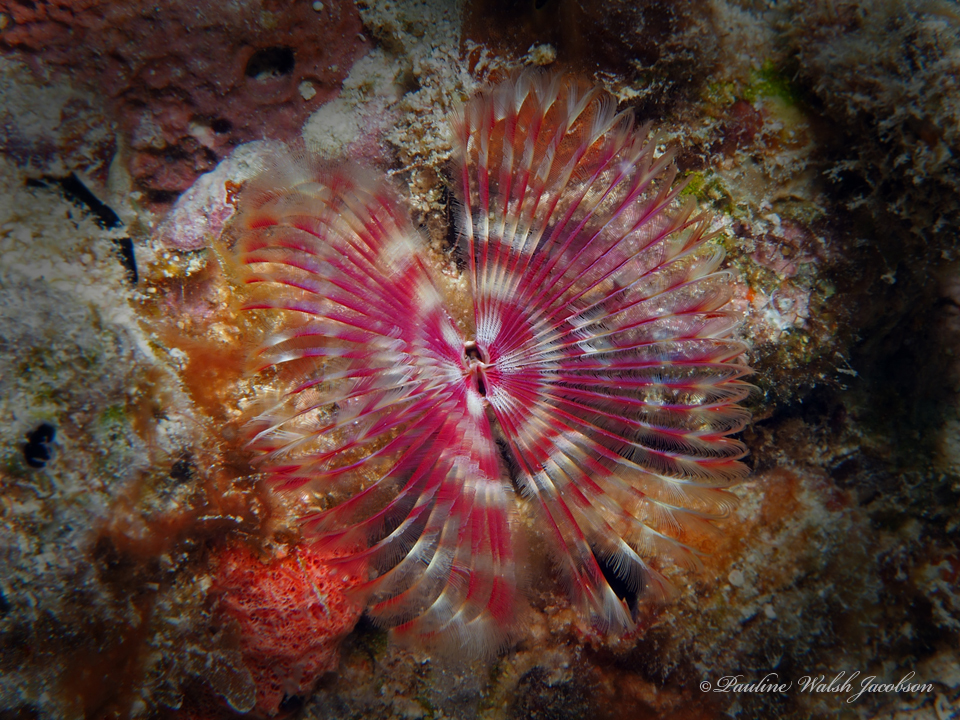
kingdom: Animalia
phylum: Annelida
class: Polychaeta
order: Sabellida
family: Sabellidae
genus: Anamobaea
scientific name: Anamobaea orstedii
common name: Split-crown feather duster
